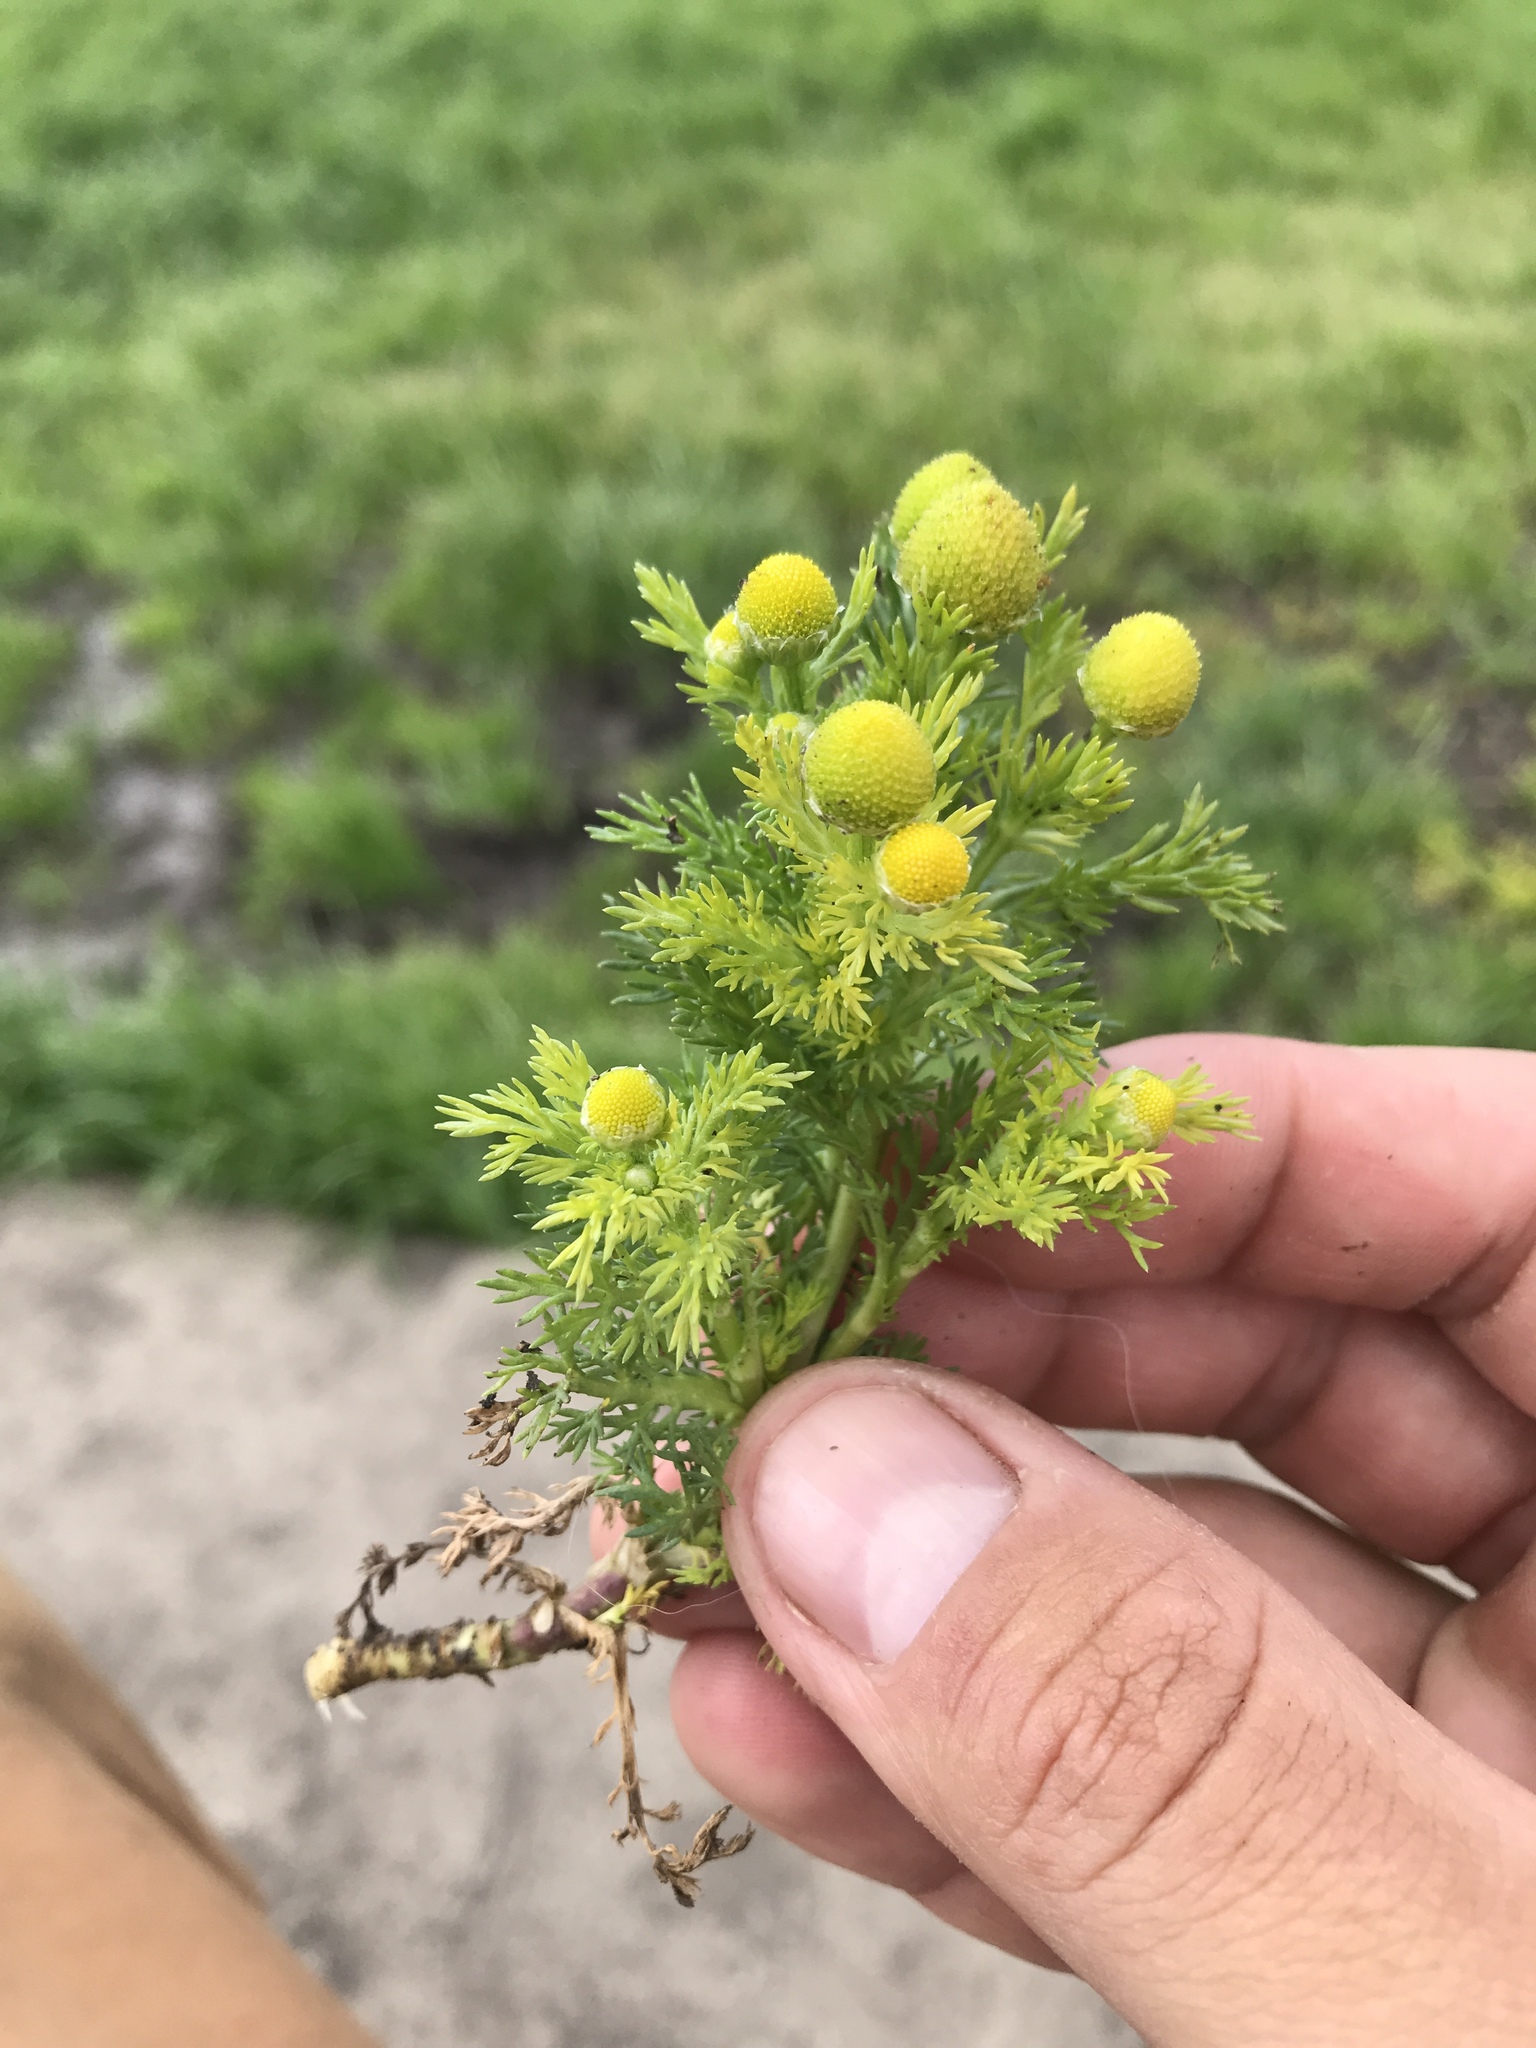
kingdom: Plantae
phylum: Tracheophyta
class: Magnoliopsida
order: Asterales
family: Asteraceae
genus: Matricaria
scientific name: Matricaria discoidea
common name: Disc mayweed
